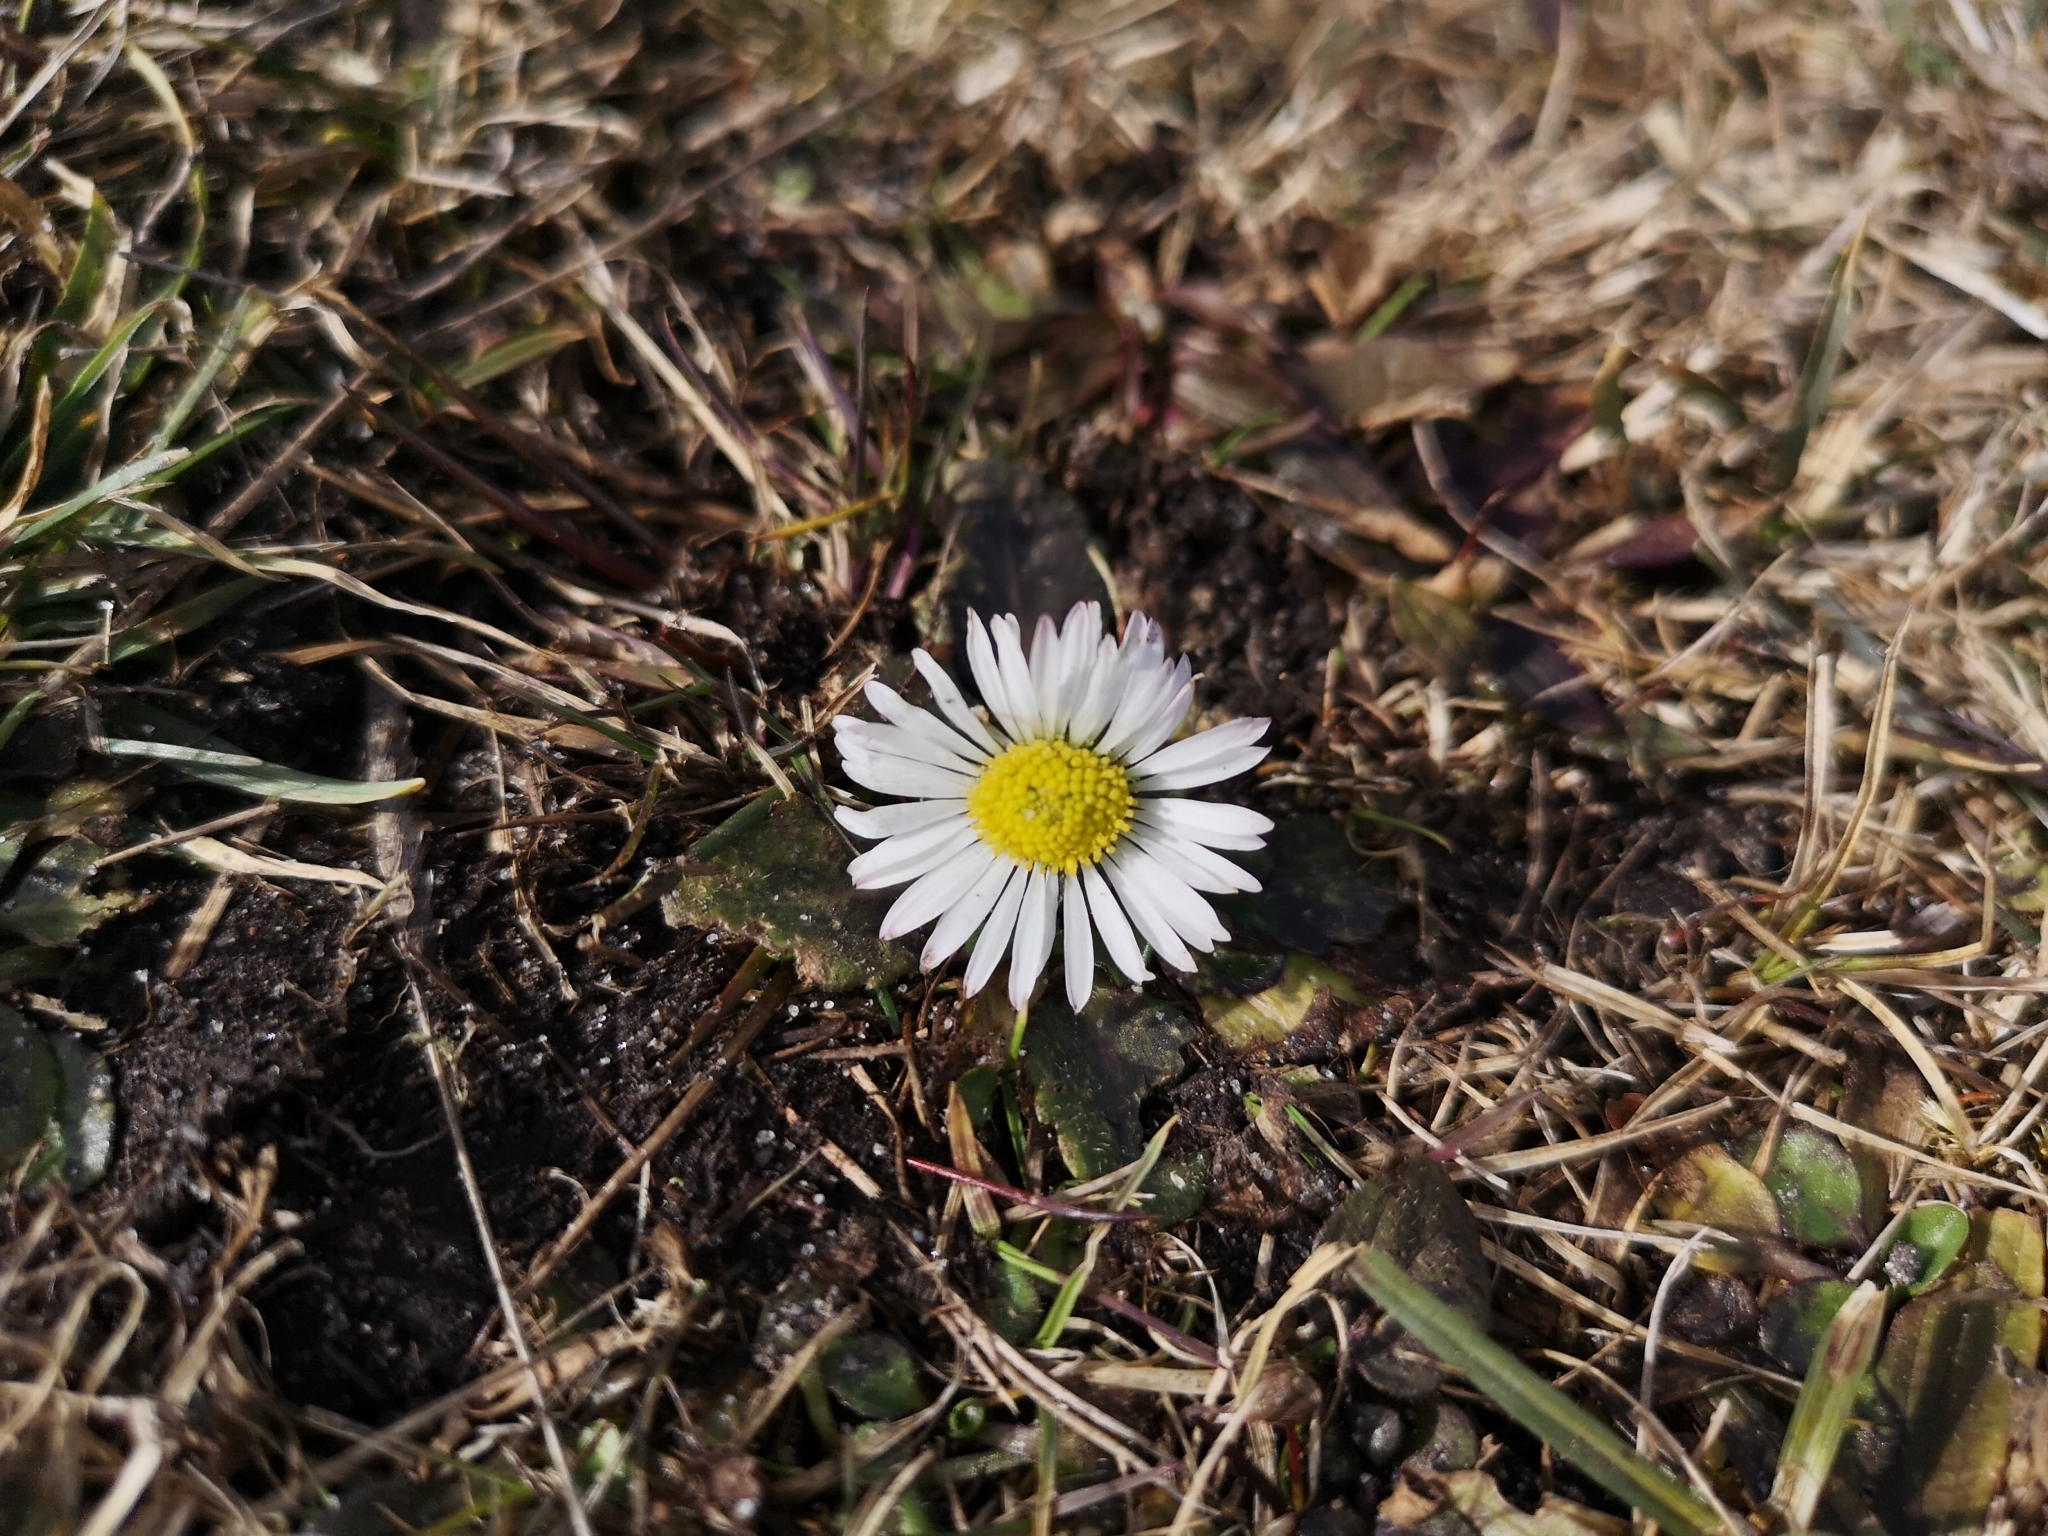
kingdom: Plantae
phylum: Tracheophyta
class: Magnoliopsida
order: Asterales
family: Asteraceae
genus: Bellis
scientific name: Bellis perennis
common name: Lawndaisy
